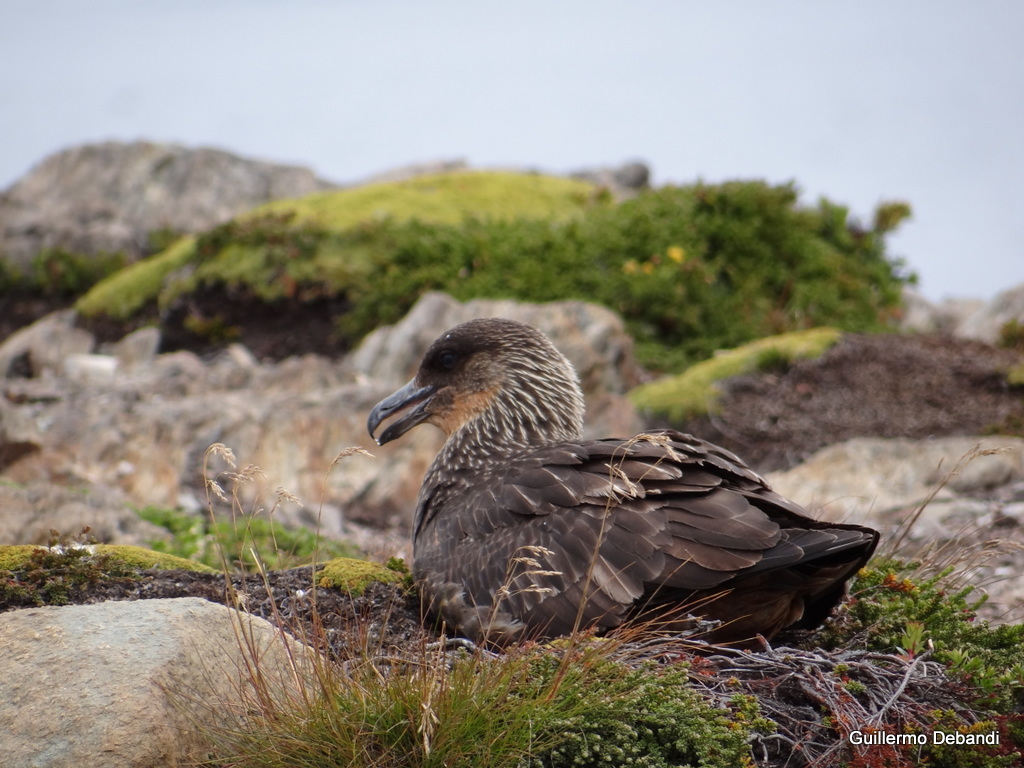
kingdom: Animalia
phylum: Chordata
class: Aves
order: Charadriiformes
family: Stercorariidae
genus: Stercorarius
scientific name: Stercorarius chilensis
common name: Chilean skua
